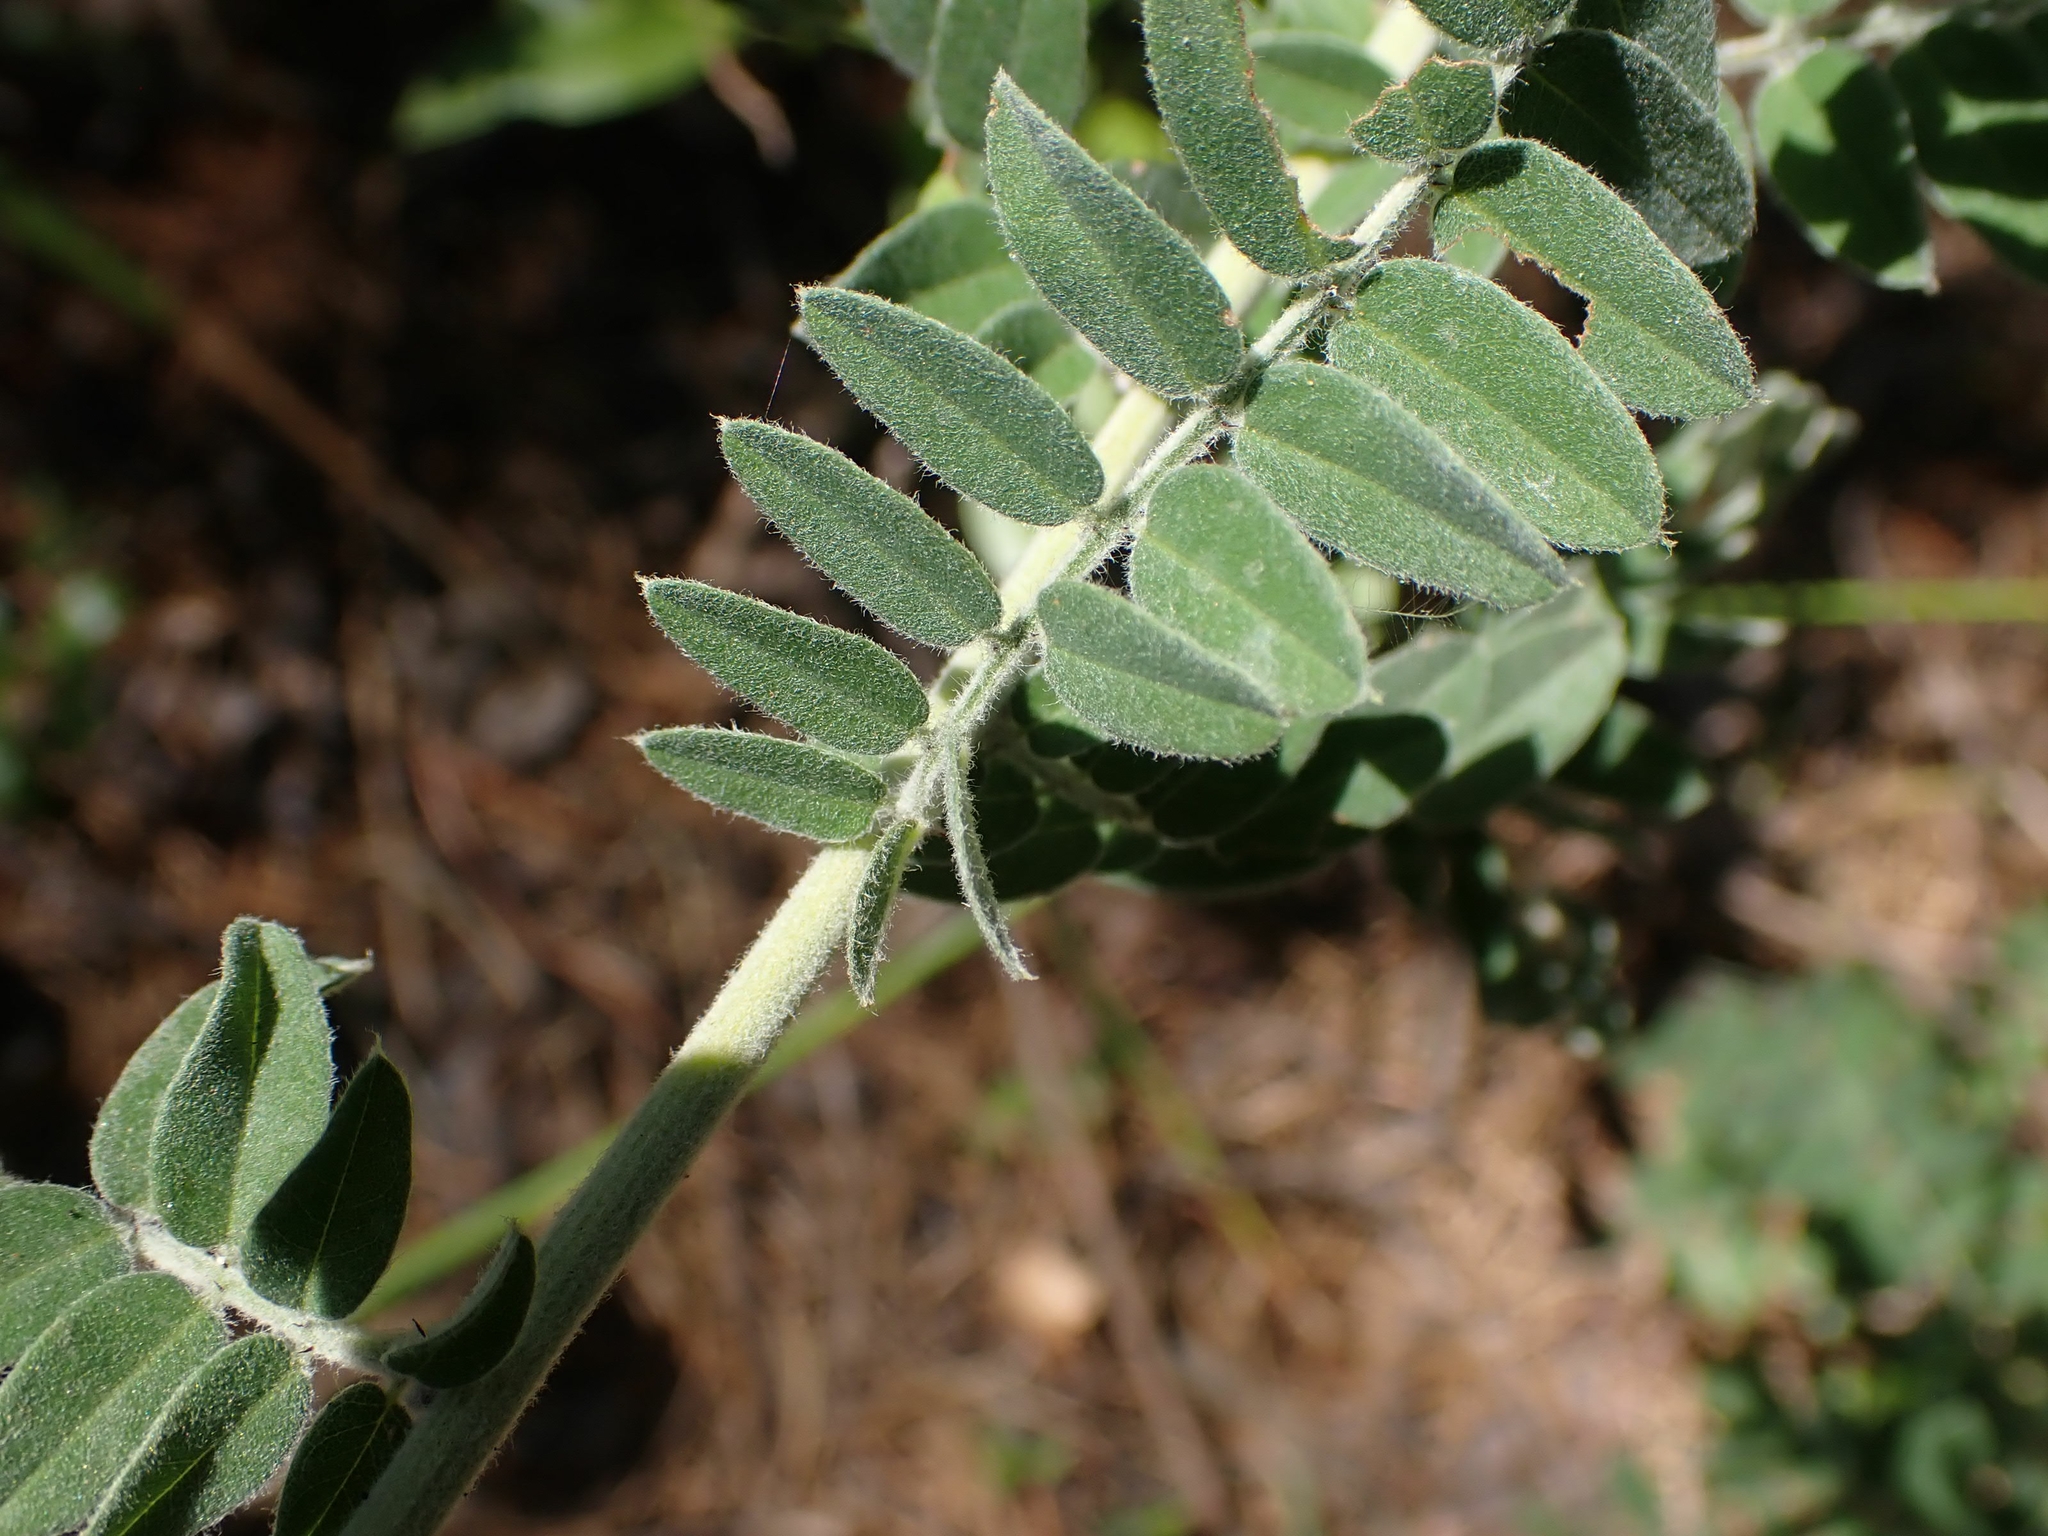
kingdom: Plantae
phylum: Tracheophyta
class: Magnoliopsida
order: Fabales
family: Fabaceae
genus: Amorpha
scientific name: Amorpha canescens
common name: Leadplant
